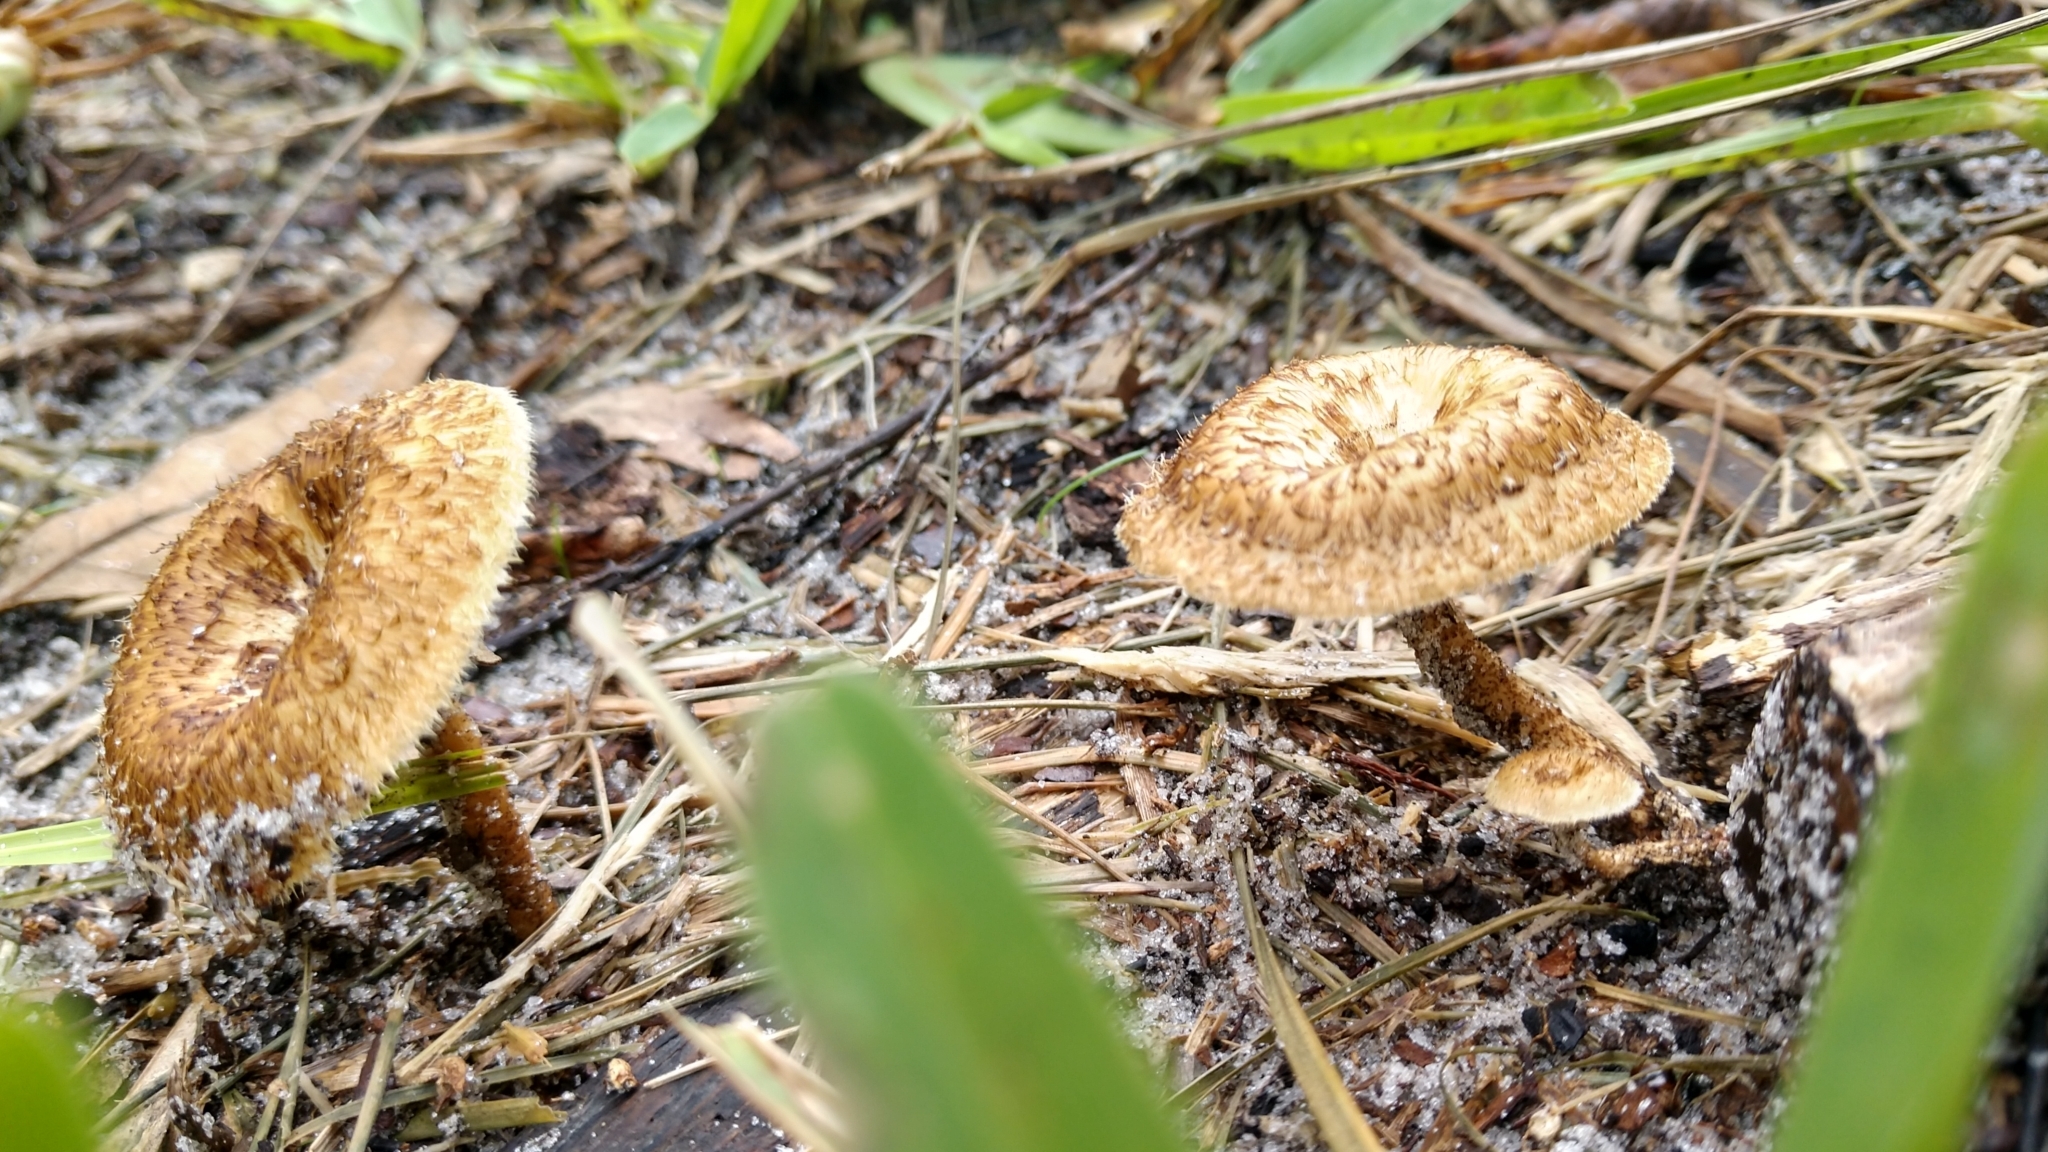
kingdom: Fungi
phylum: Basidiomycota
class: Agaricomycetes
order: Polyporales
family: Polyporaceae
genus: Lentinus
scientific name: Lentinus crinitus
